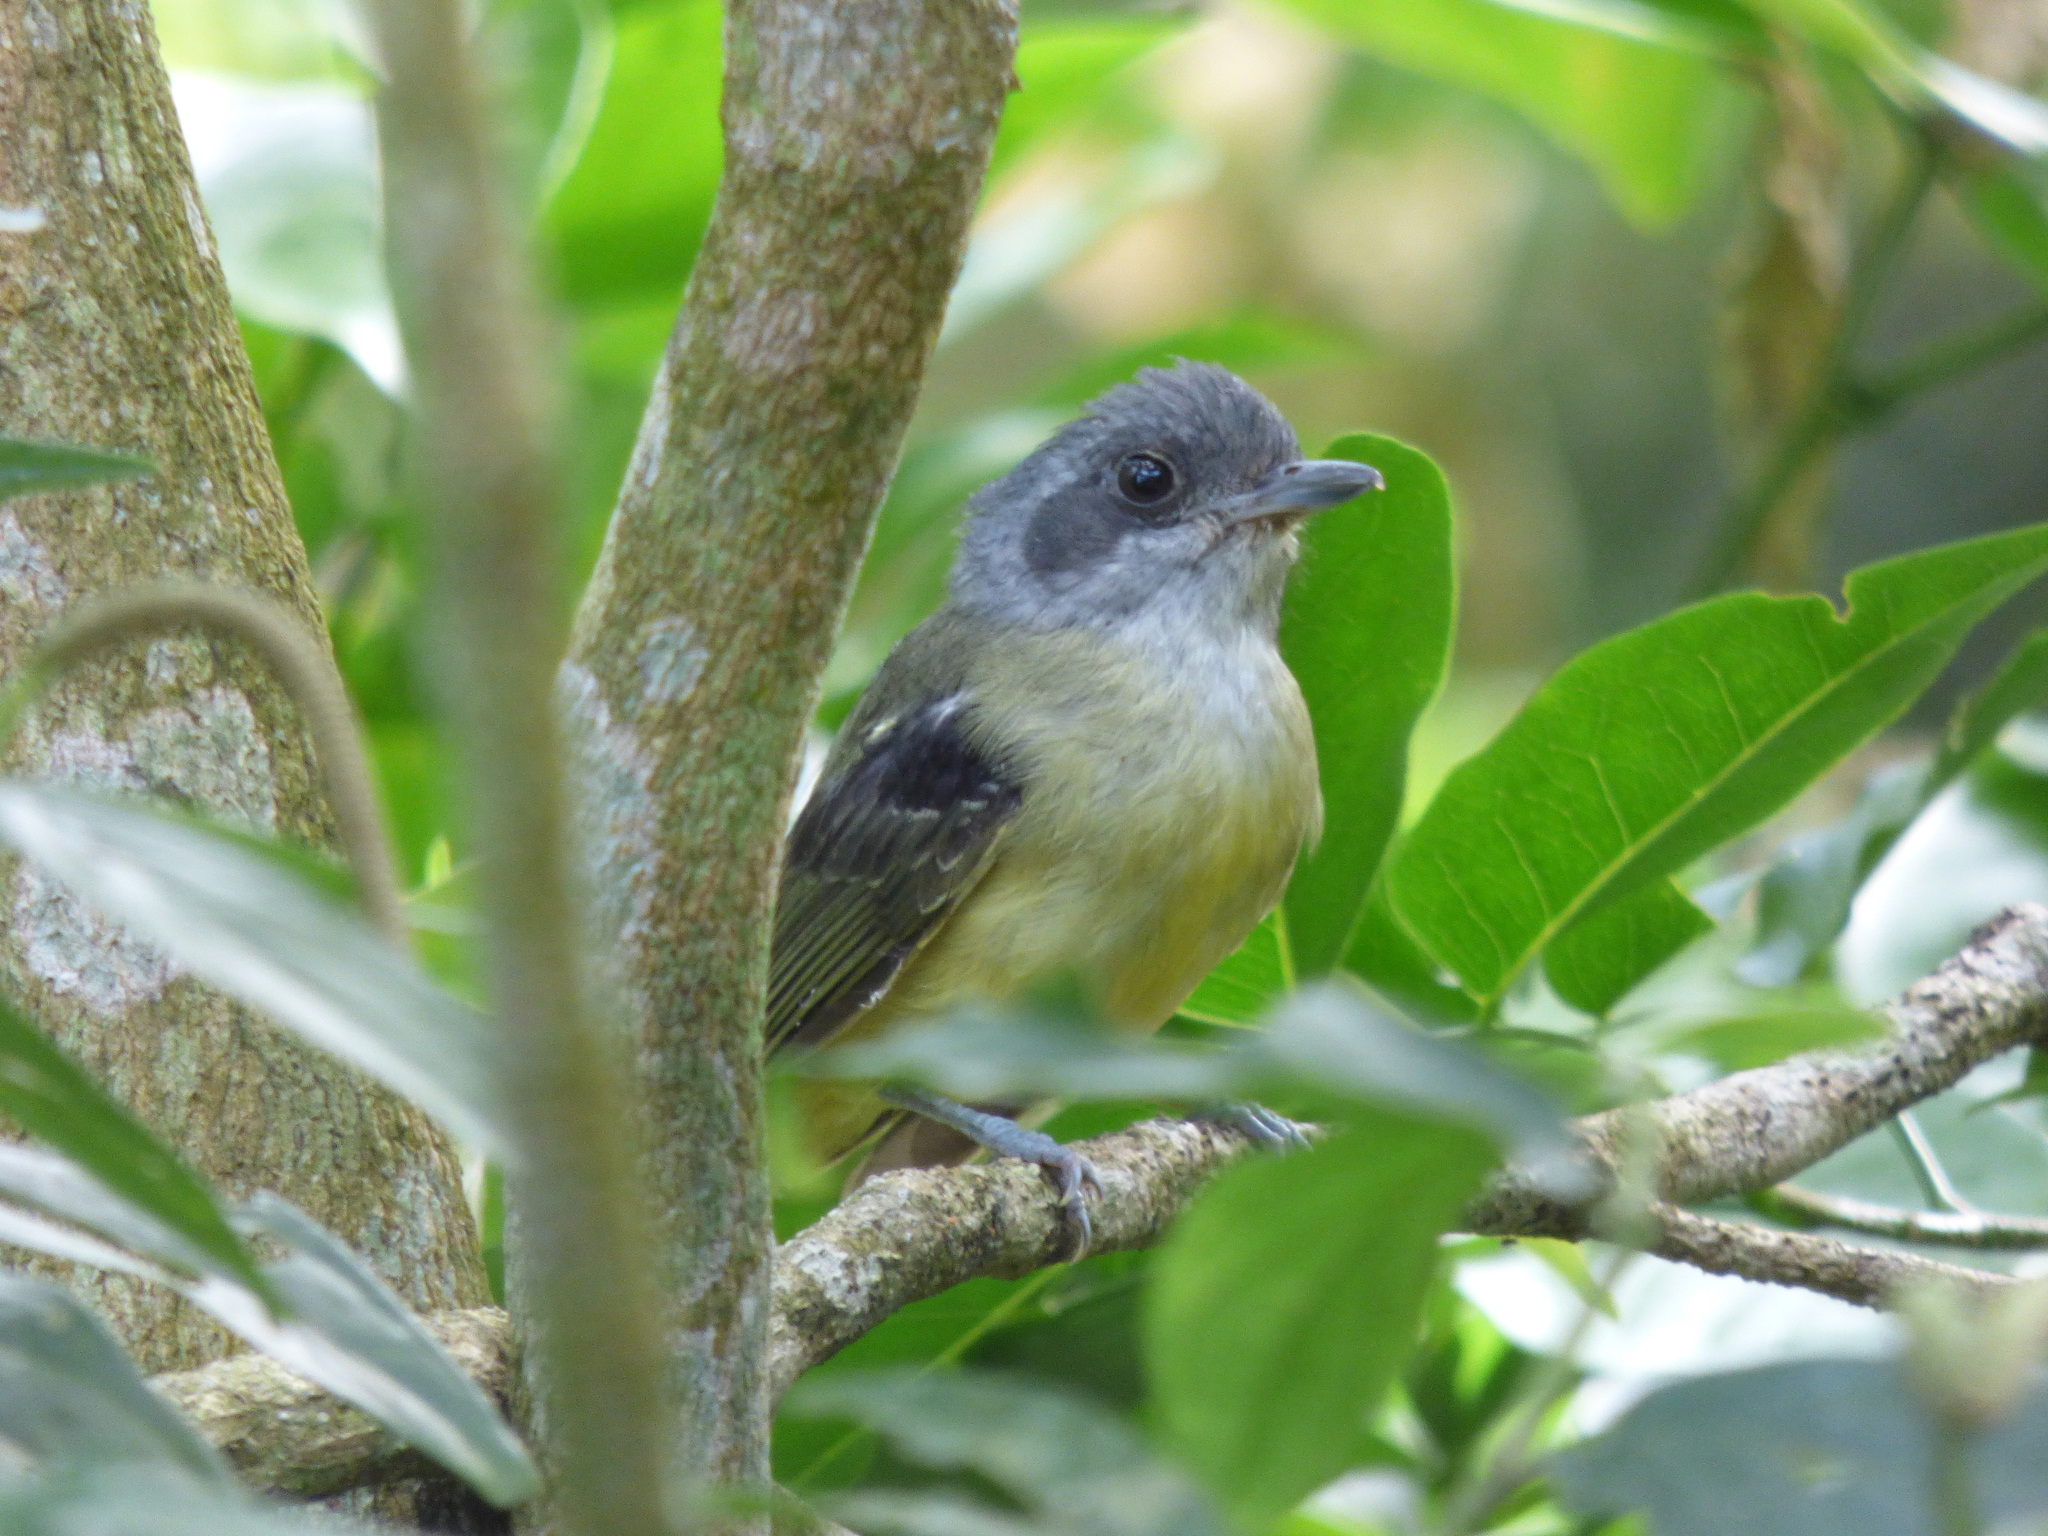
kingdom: Animalia
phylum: Chordata
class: Aves
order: Passeriformes
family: Thamnophilidae
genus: Dysithamnus
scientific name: Dysithamnus mentalis
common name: Plain antvireo
